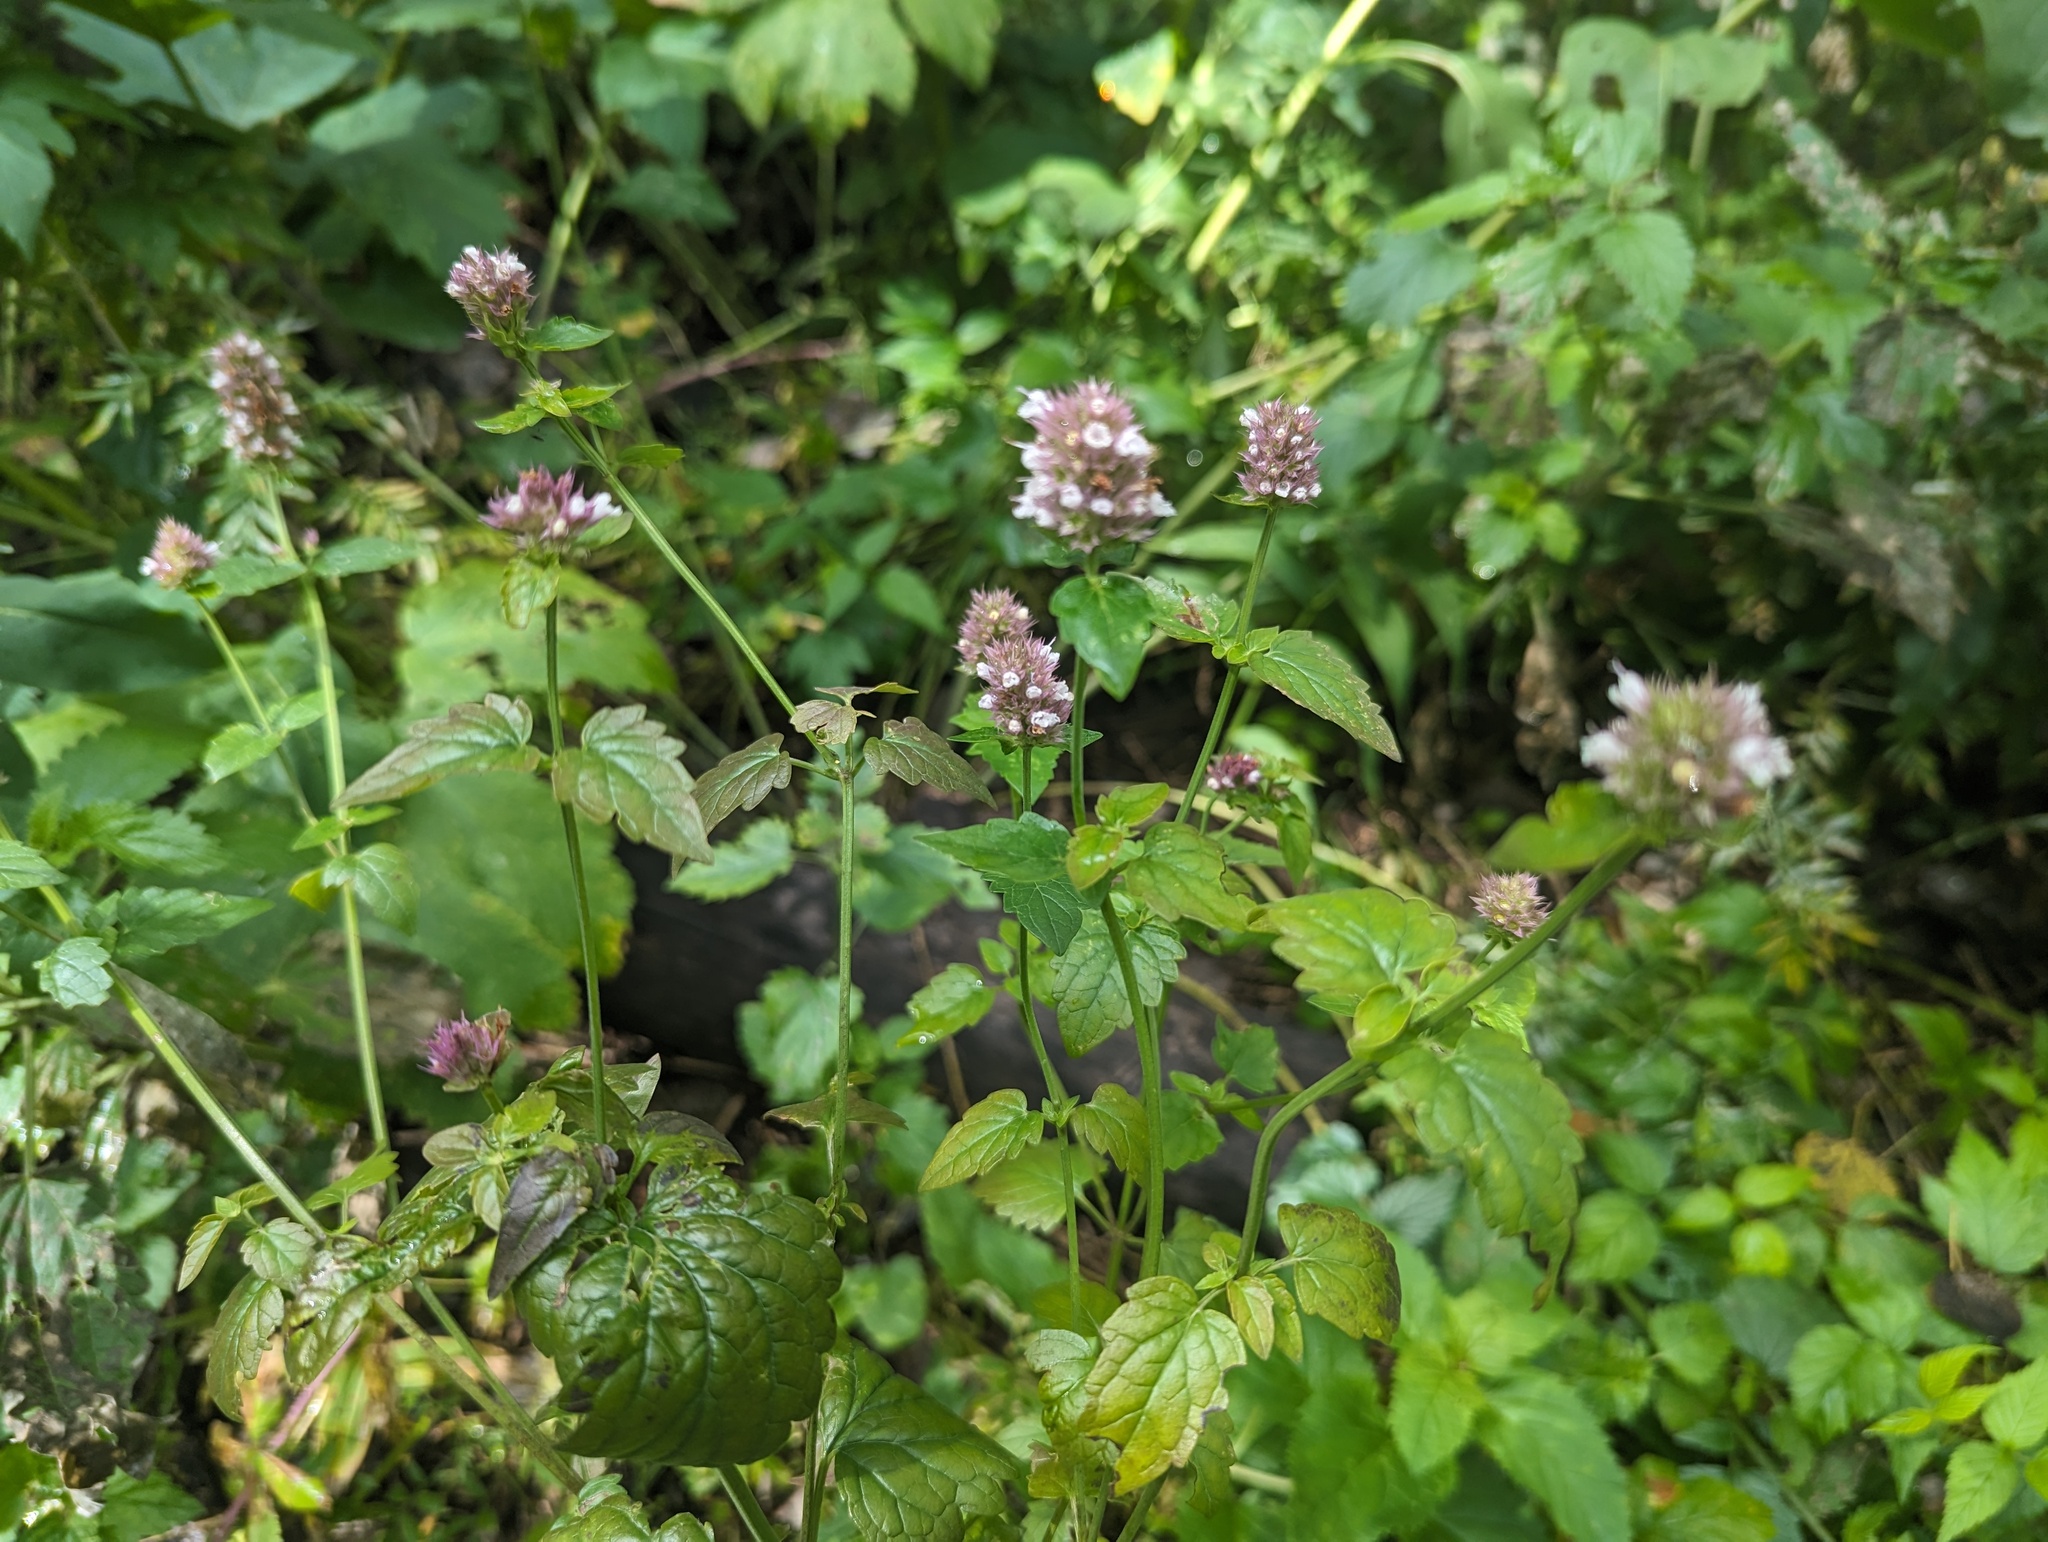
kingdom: Plantae
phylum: Tracheophyta
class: Magnoliopsida
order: Lamiales
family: Lamiaceae
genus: Agastache
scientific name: Agastache urticifolia
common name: Horsemint giant hyssop
